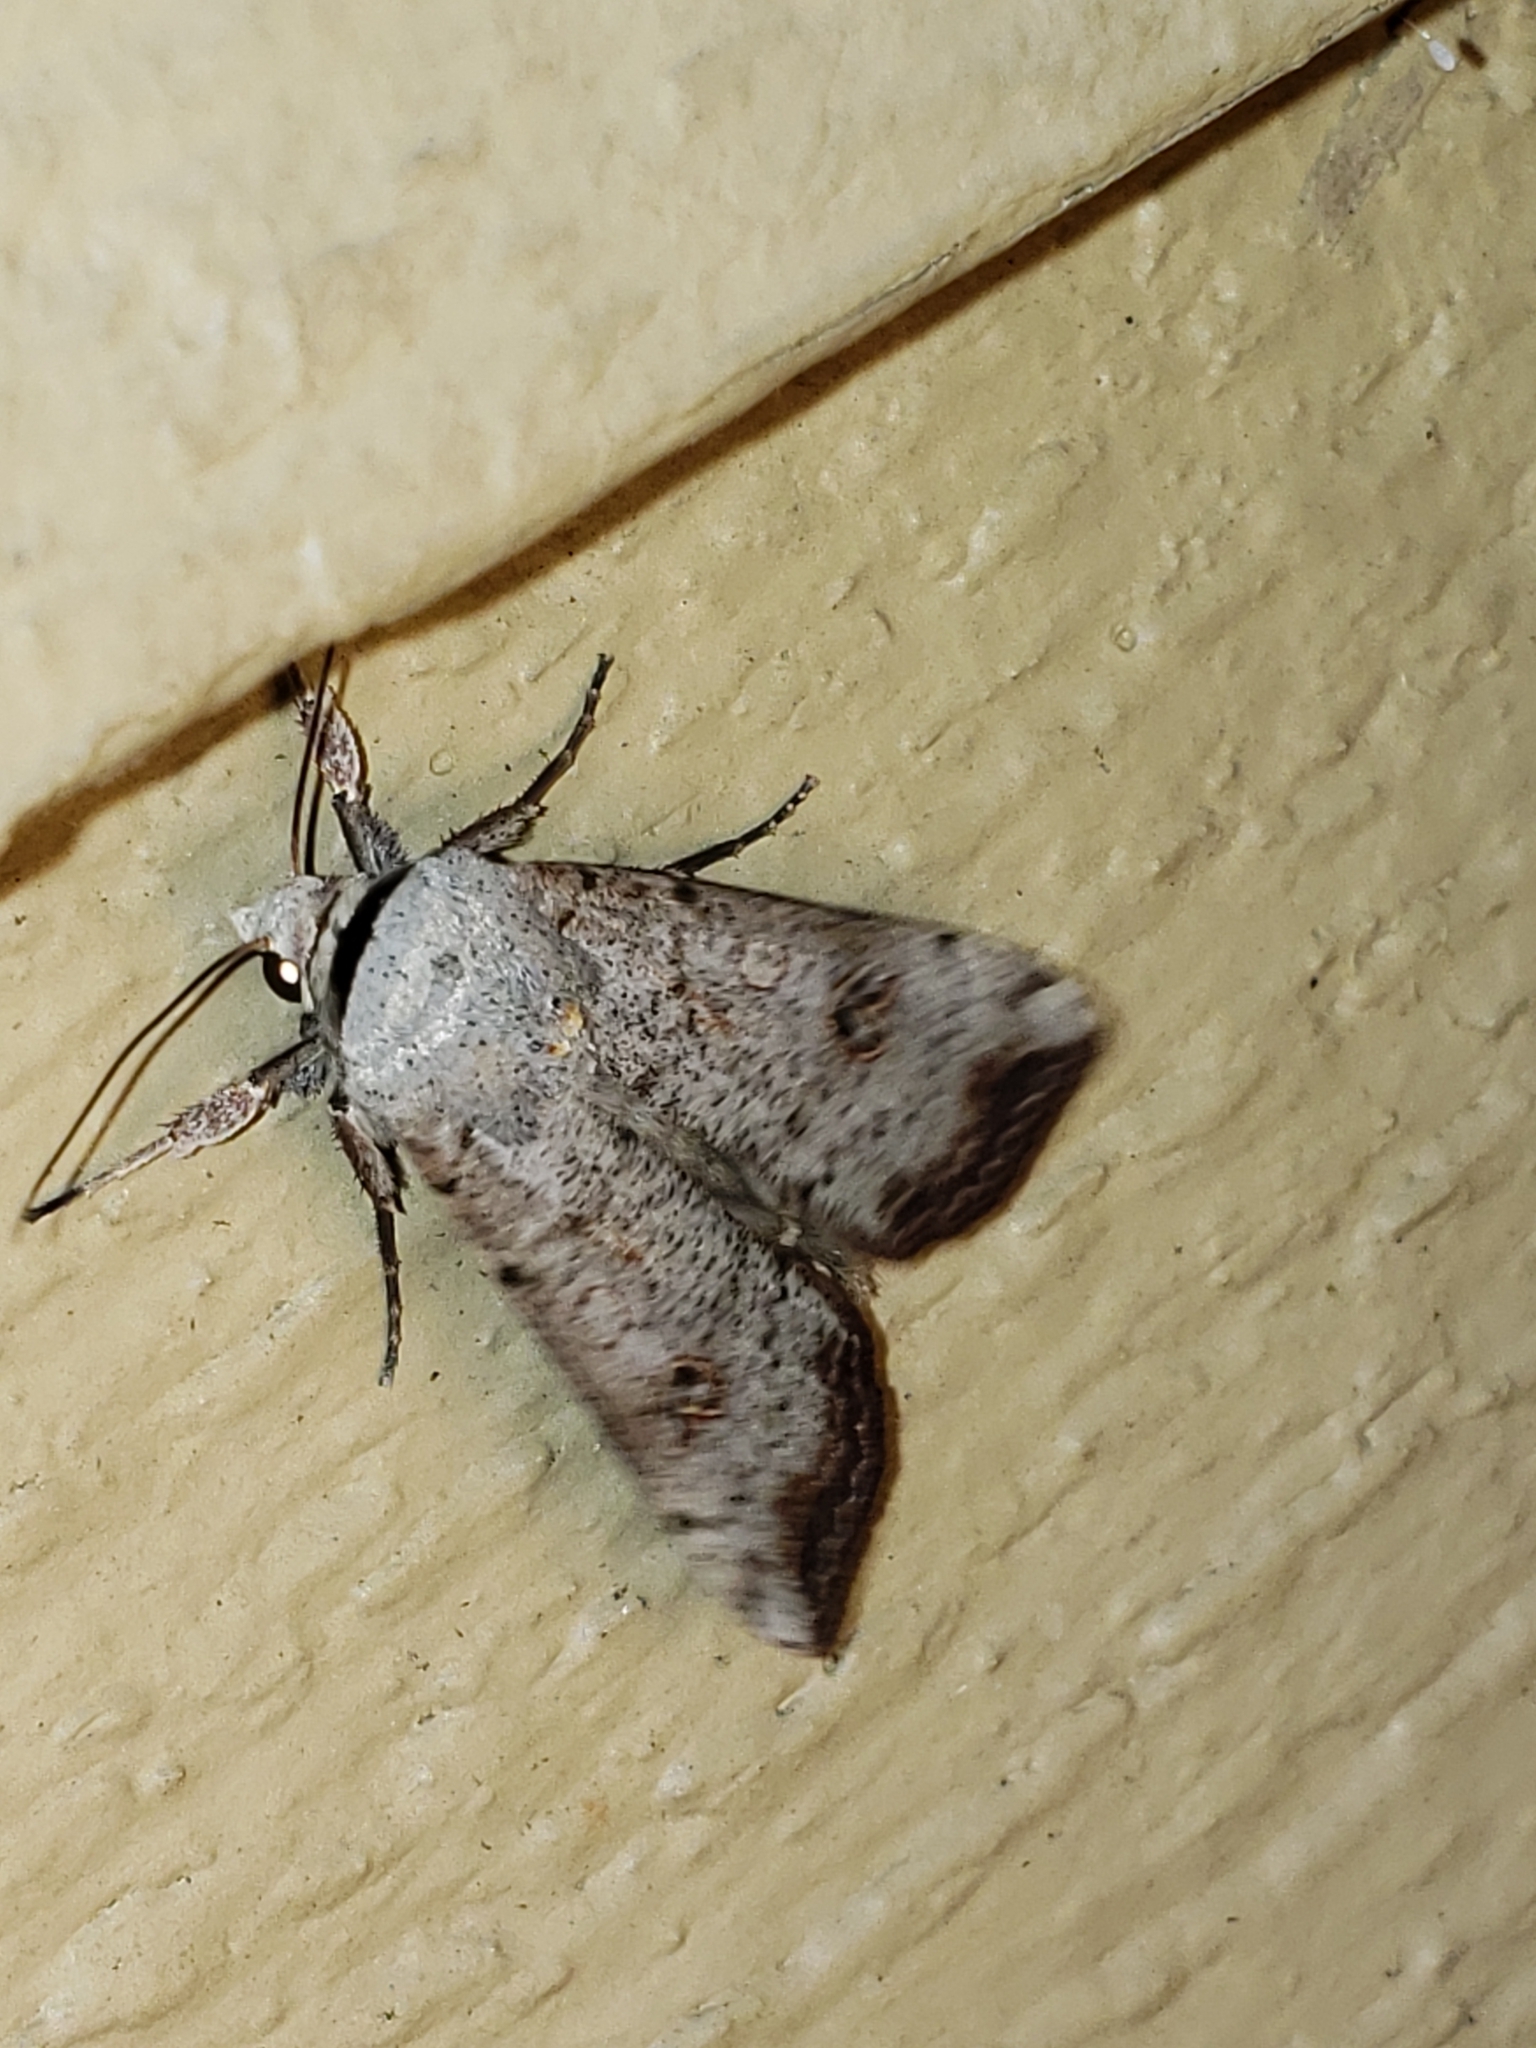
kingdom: Animalia
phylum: Arthropoda
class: Insecta
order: Lepidoptera
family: Noctuidae
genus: Anicla
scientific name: Anicla infecta
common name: Green cutworm
